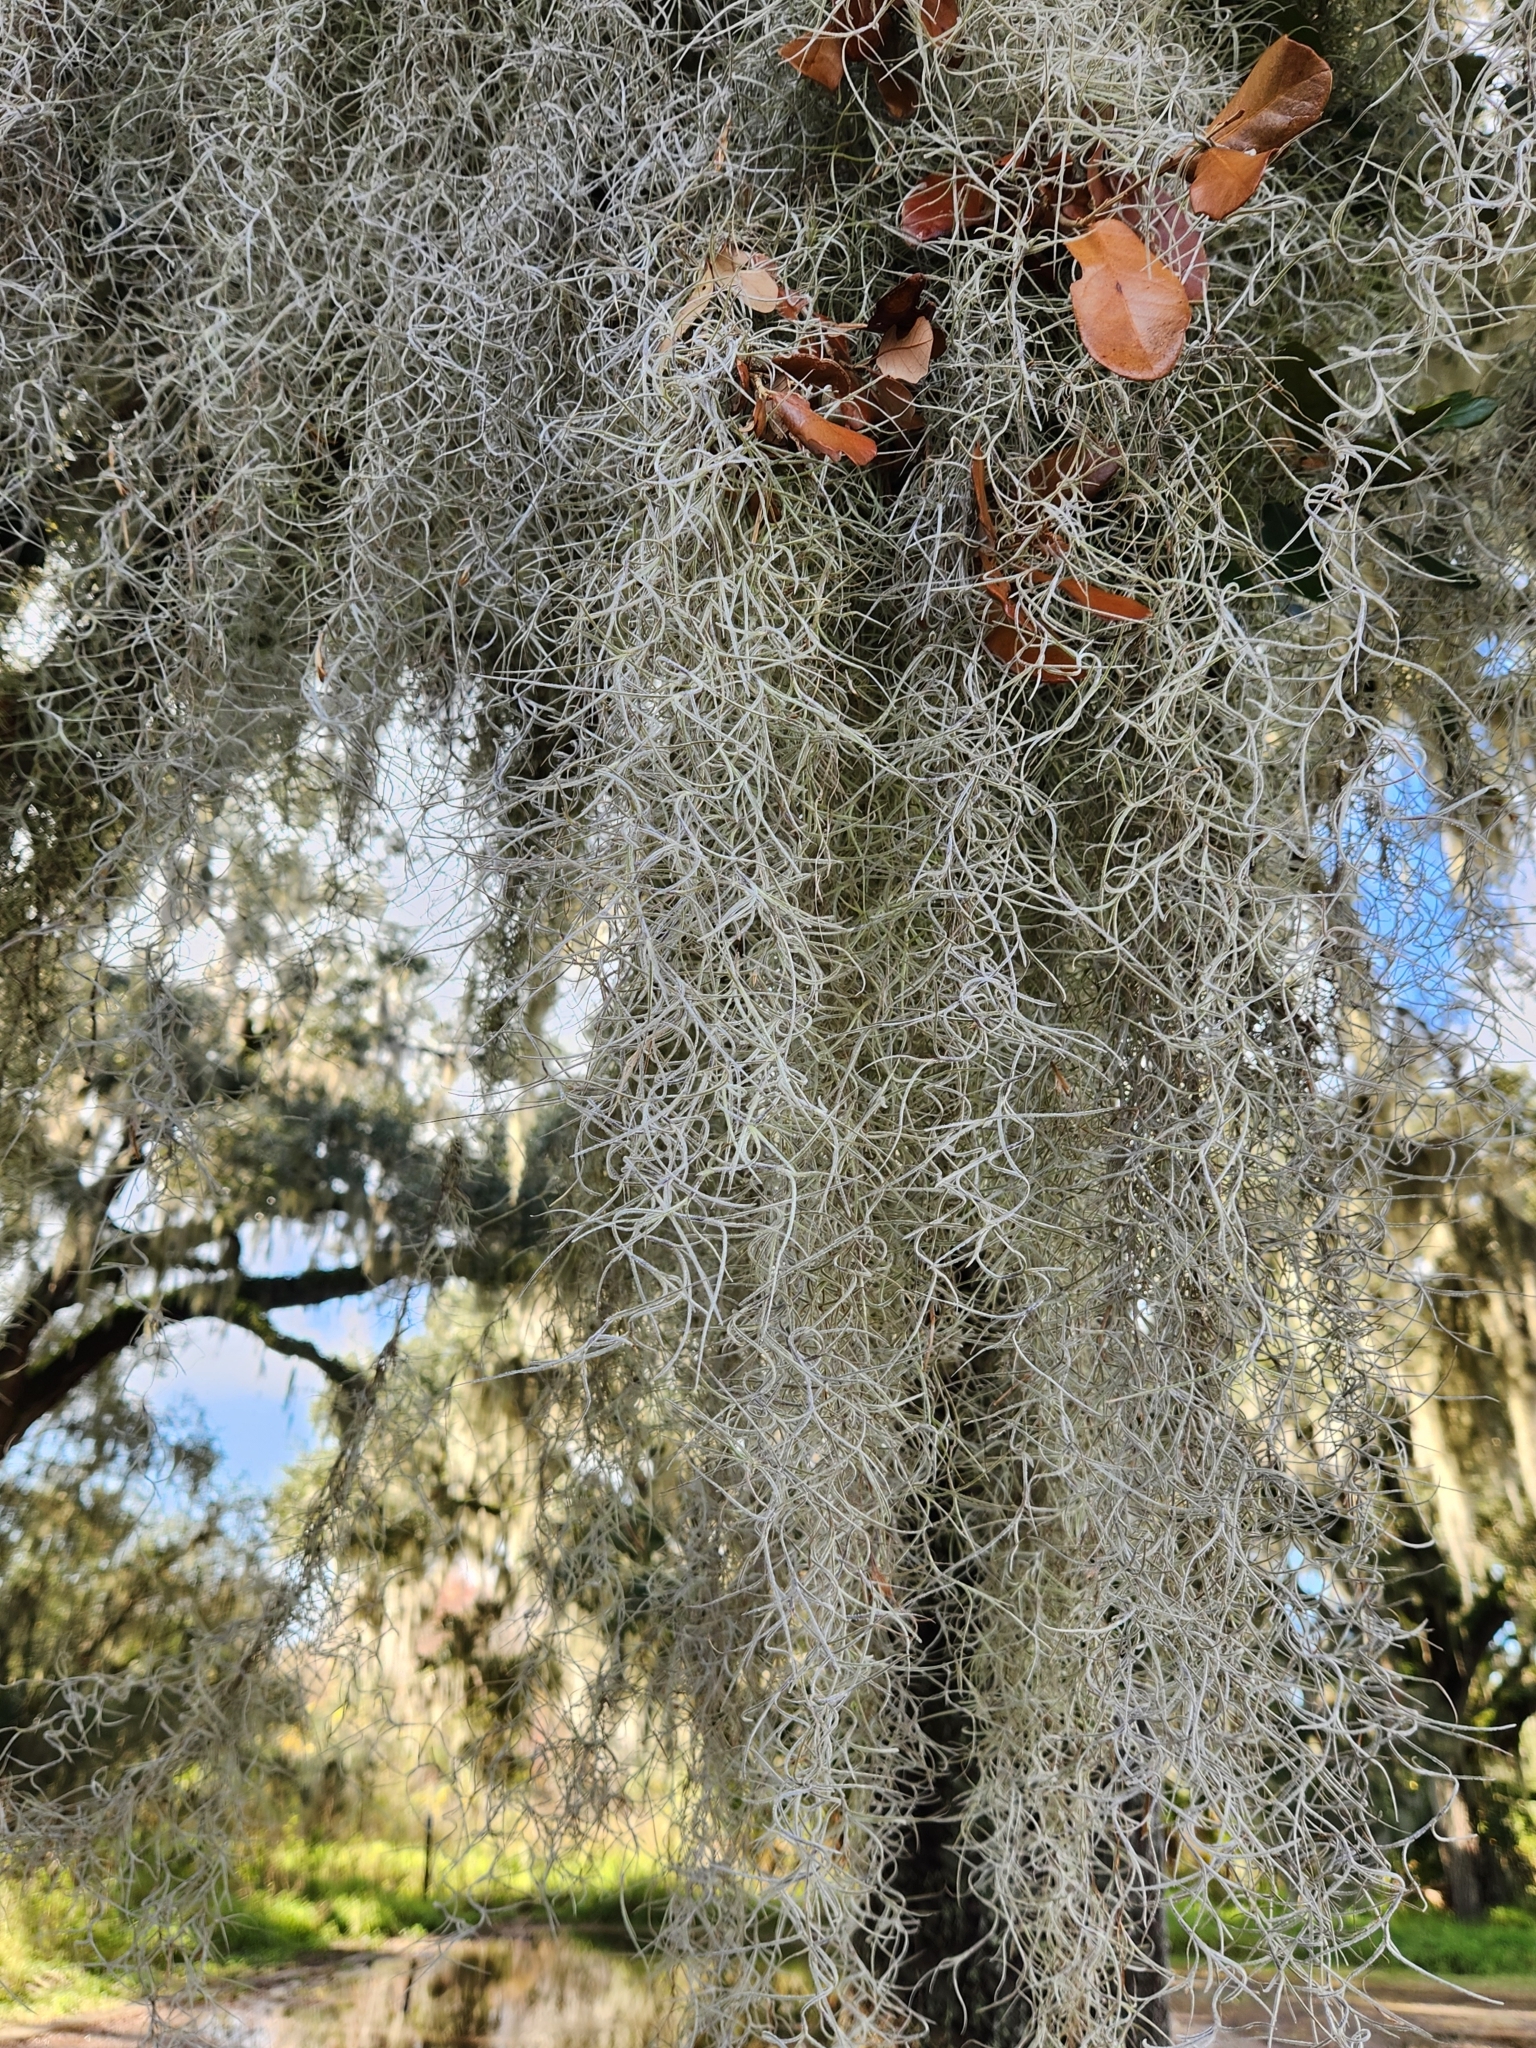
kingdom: Plantae
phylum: Tracheophyta
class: Liliopsida
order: Poales
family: Bromeliaceae
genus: Tillandsia
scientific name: Tillandsia usneoides
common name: Spanish moss
